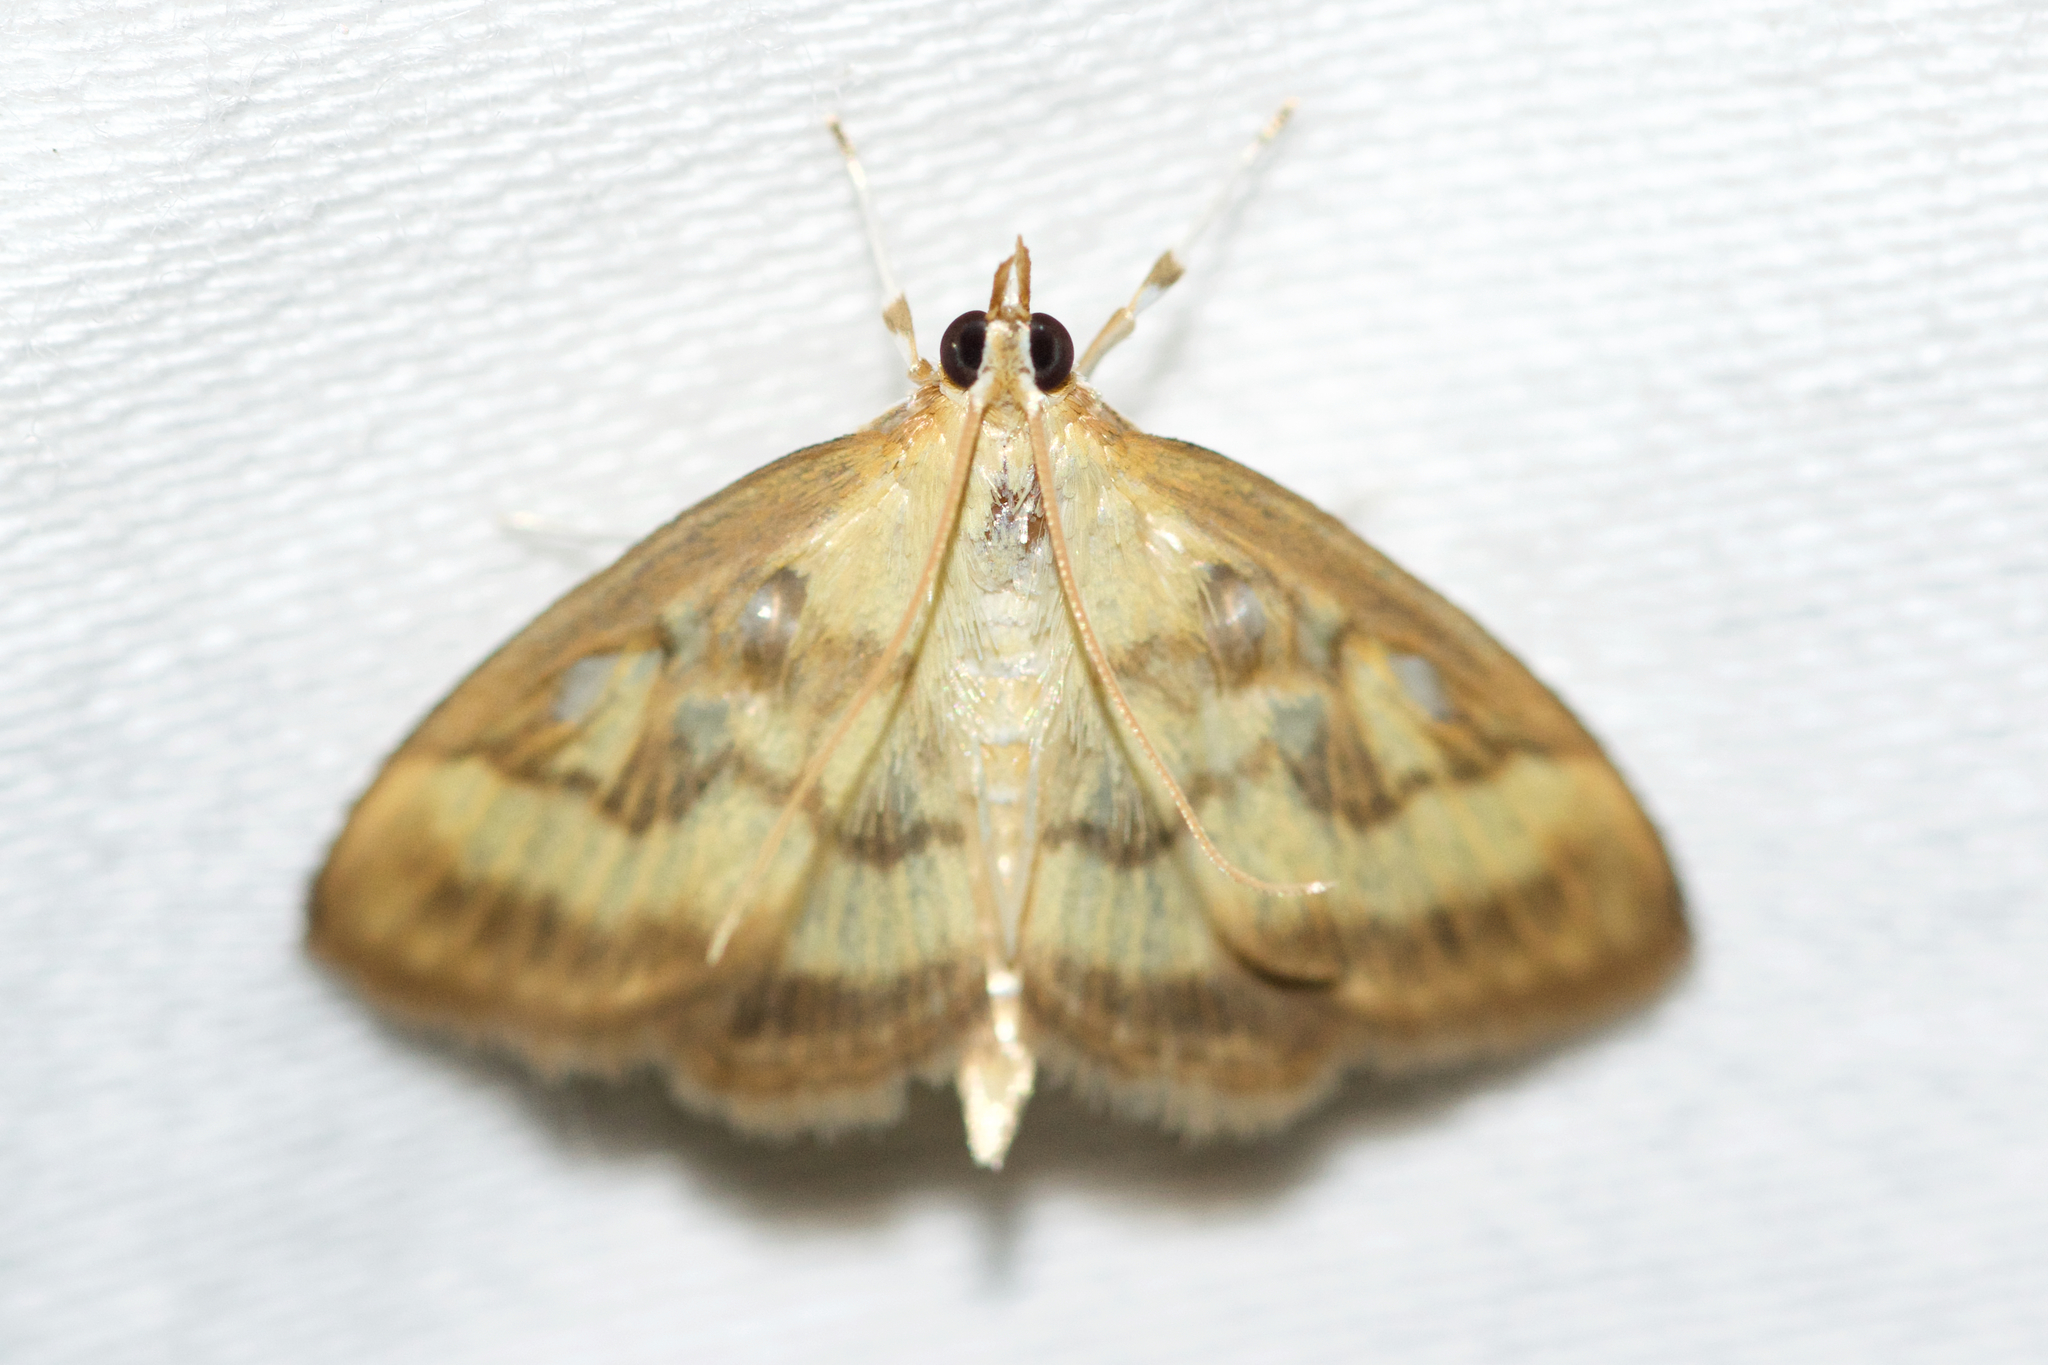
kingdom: Animalia
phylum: Arthropoda
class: Insecta
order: Lepidoptera
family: Crambidae
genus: Crocidophora
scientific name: Crocidophora tuberculalis
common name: Pale-winged crocidiphora moth
